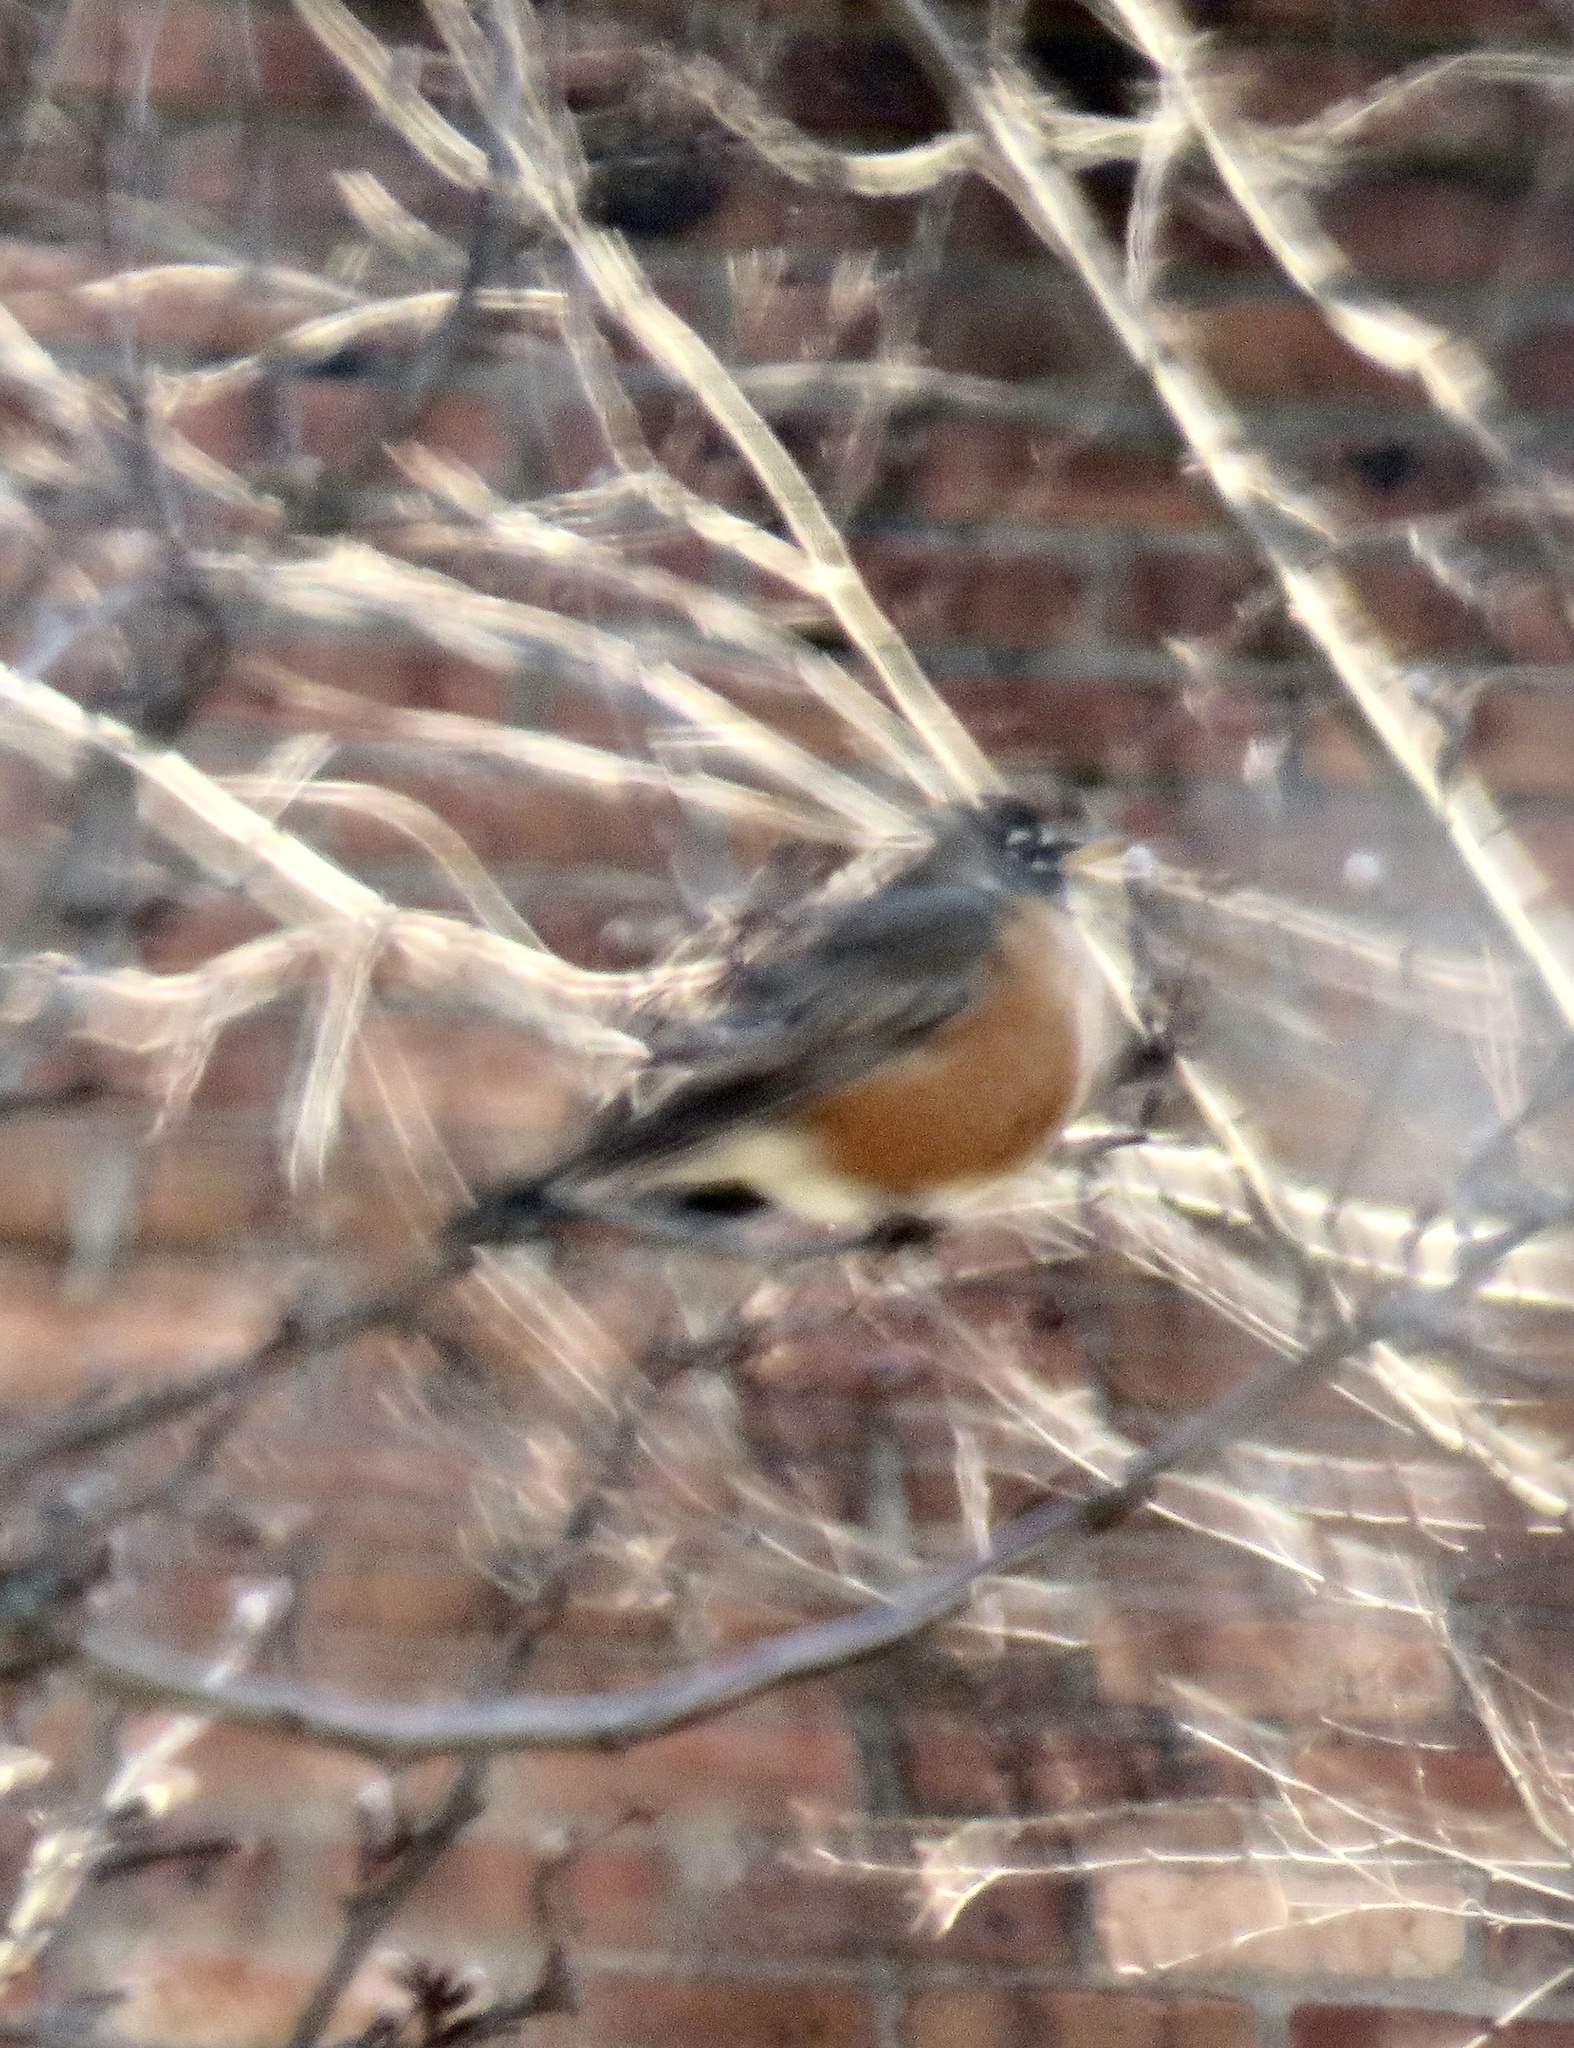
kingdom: Animalia
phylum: Chordata
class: Aves
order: Passeriformes
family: Turdidae
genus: Turdus
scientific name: Turdus migratorius
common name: American robin
